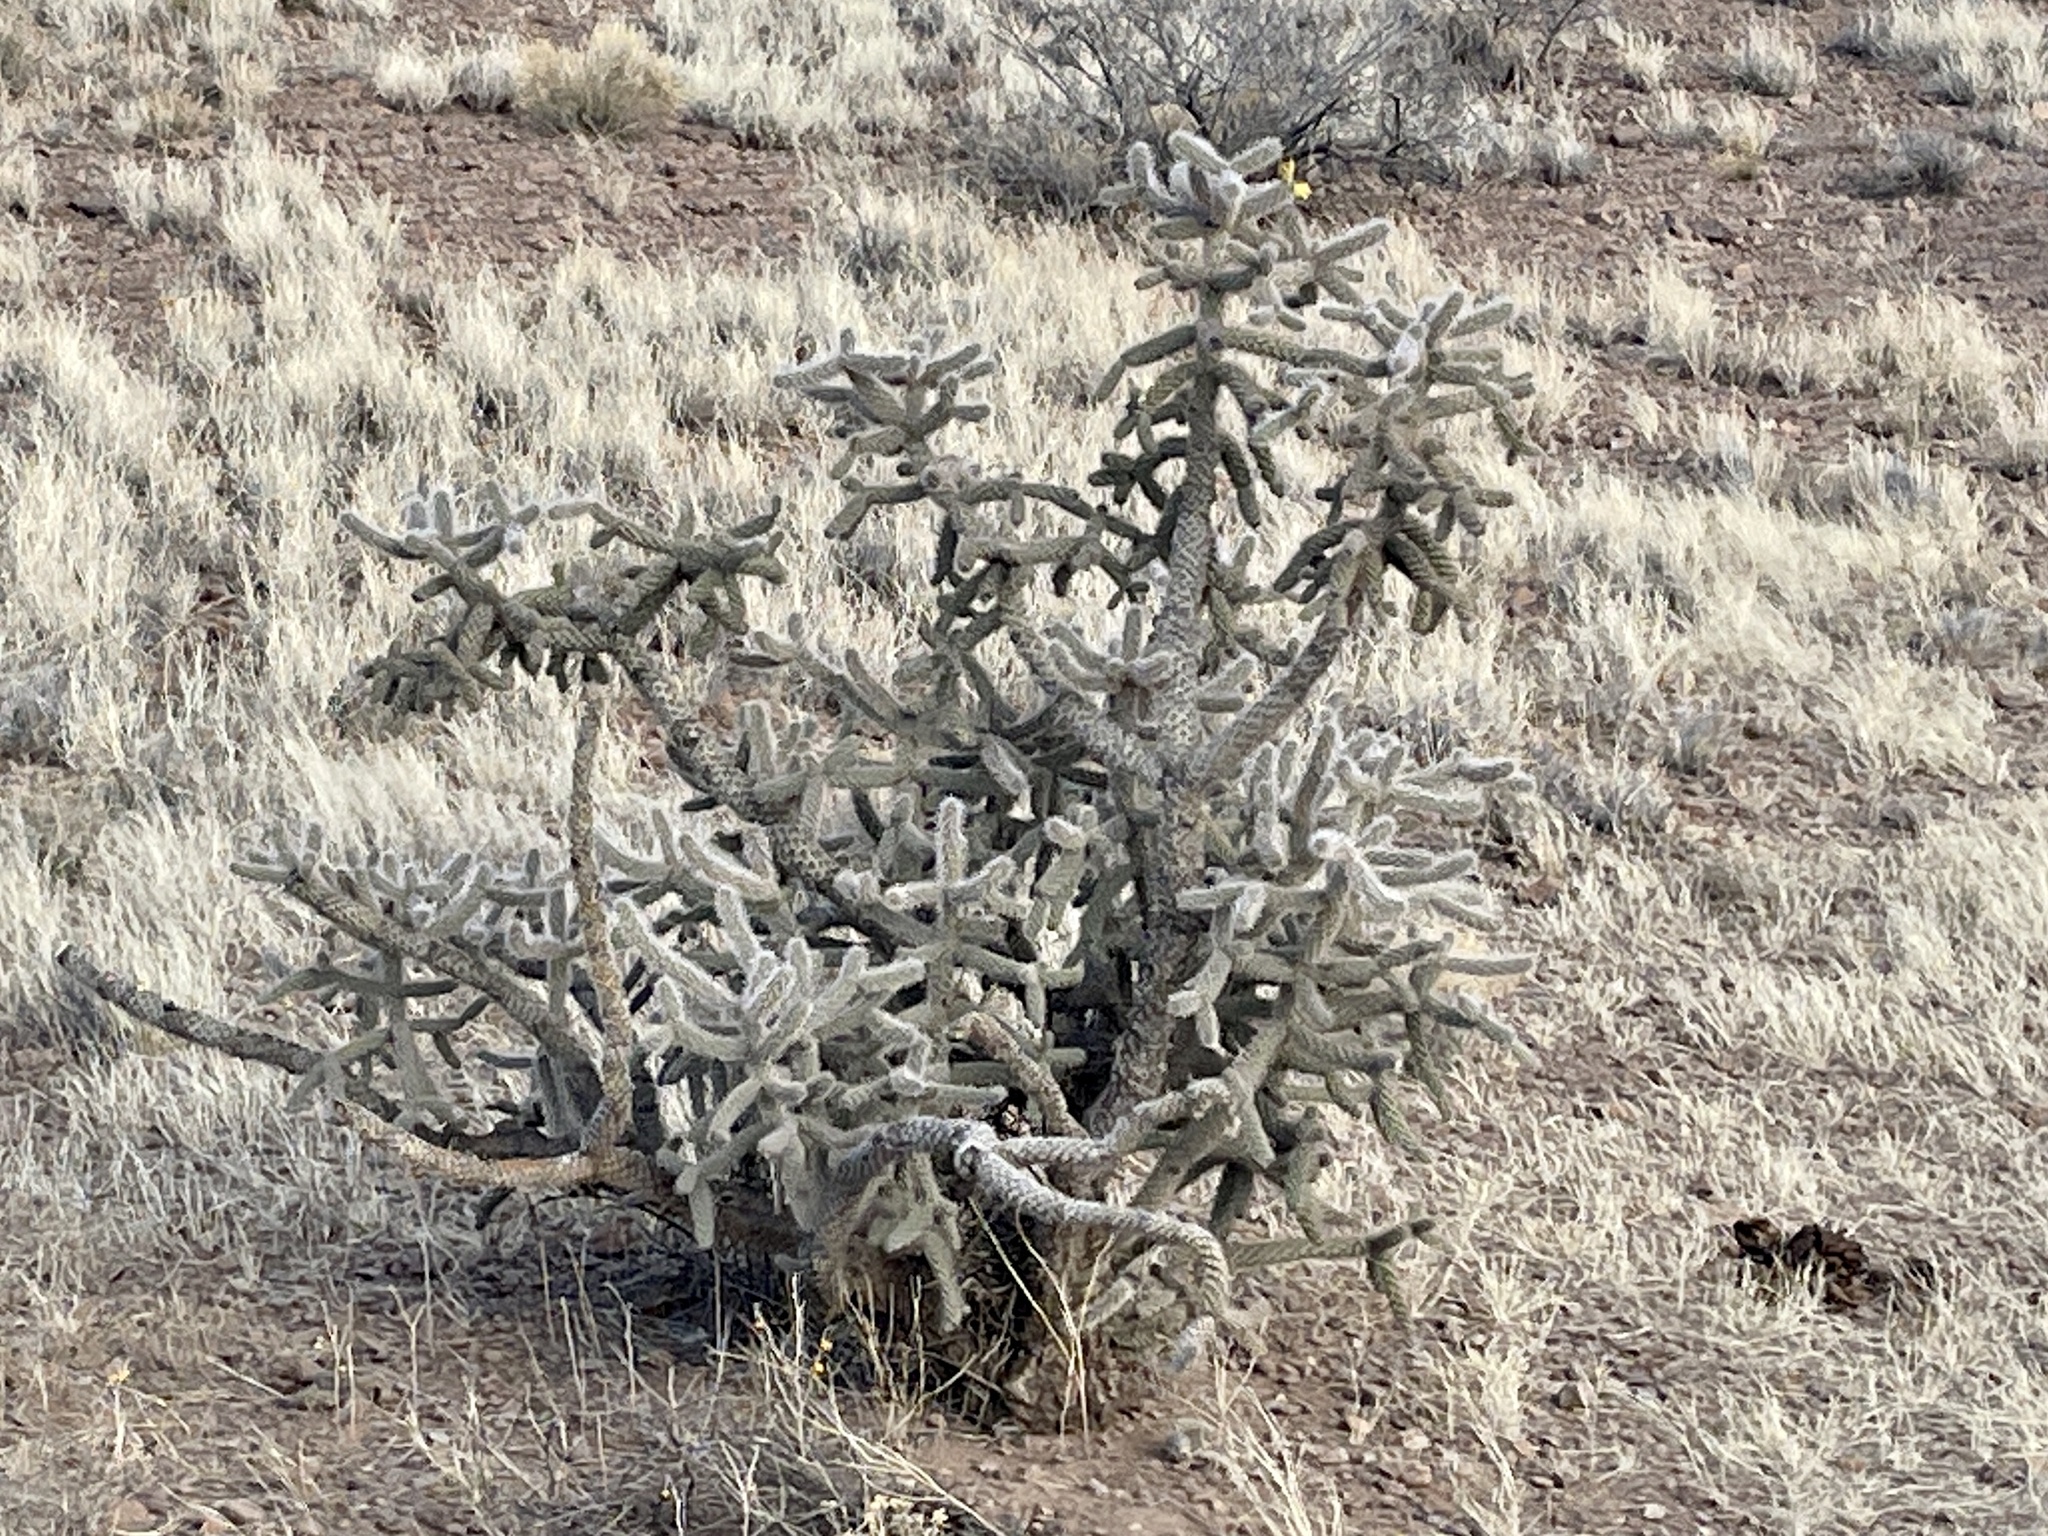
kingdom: Plantae
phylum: Tracheophyta
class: Magnoliopsida
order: Caryophyllales
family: Cactaceae
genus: Cylindropuntia
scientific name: Cylindropuntia imbricata
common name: Candelabrum cactus
